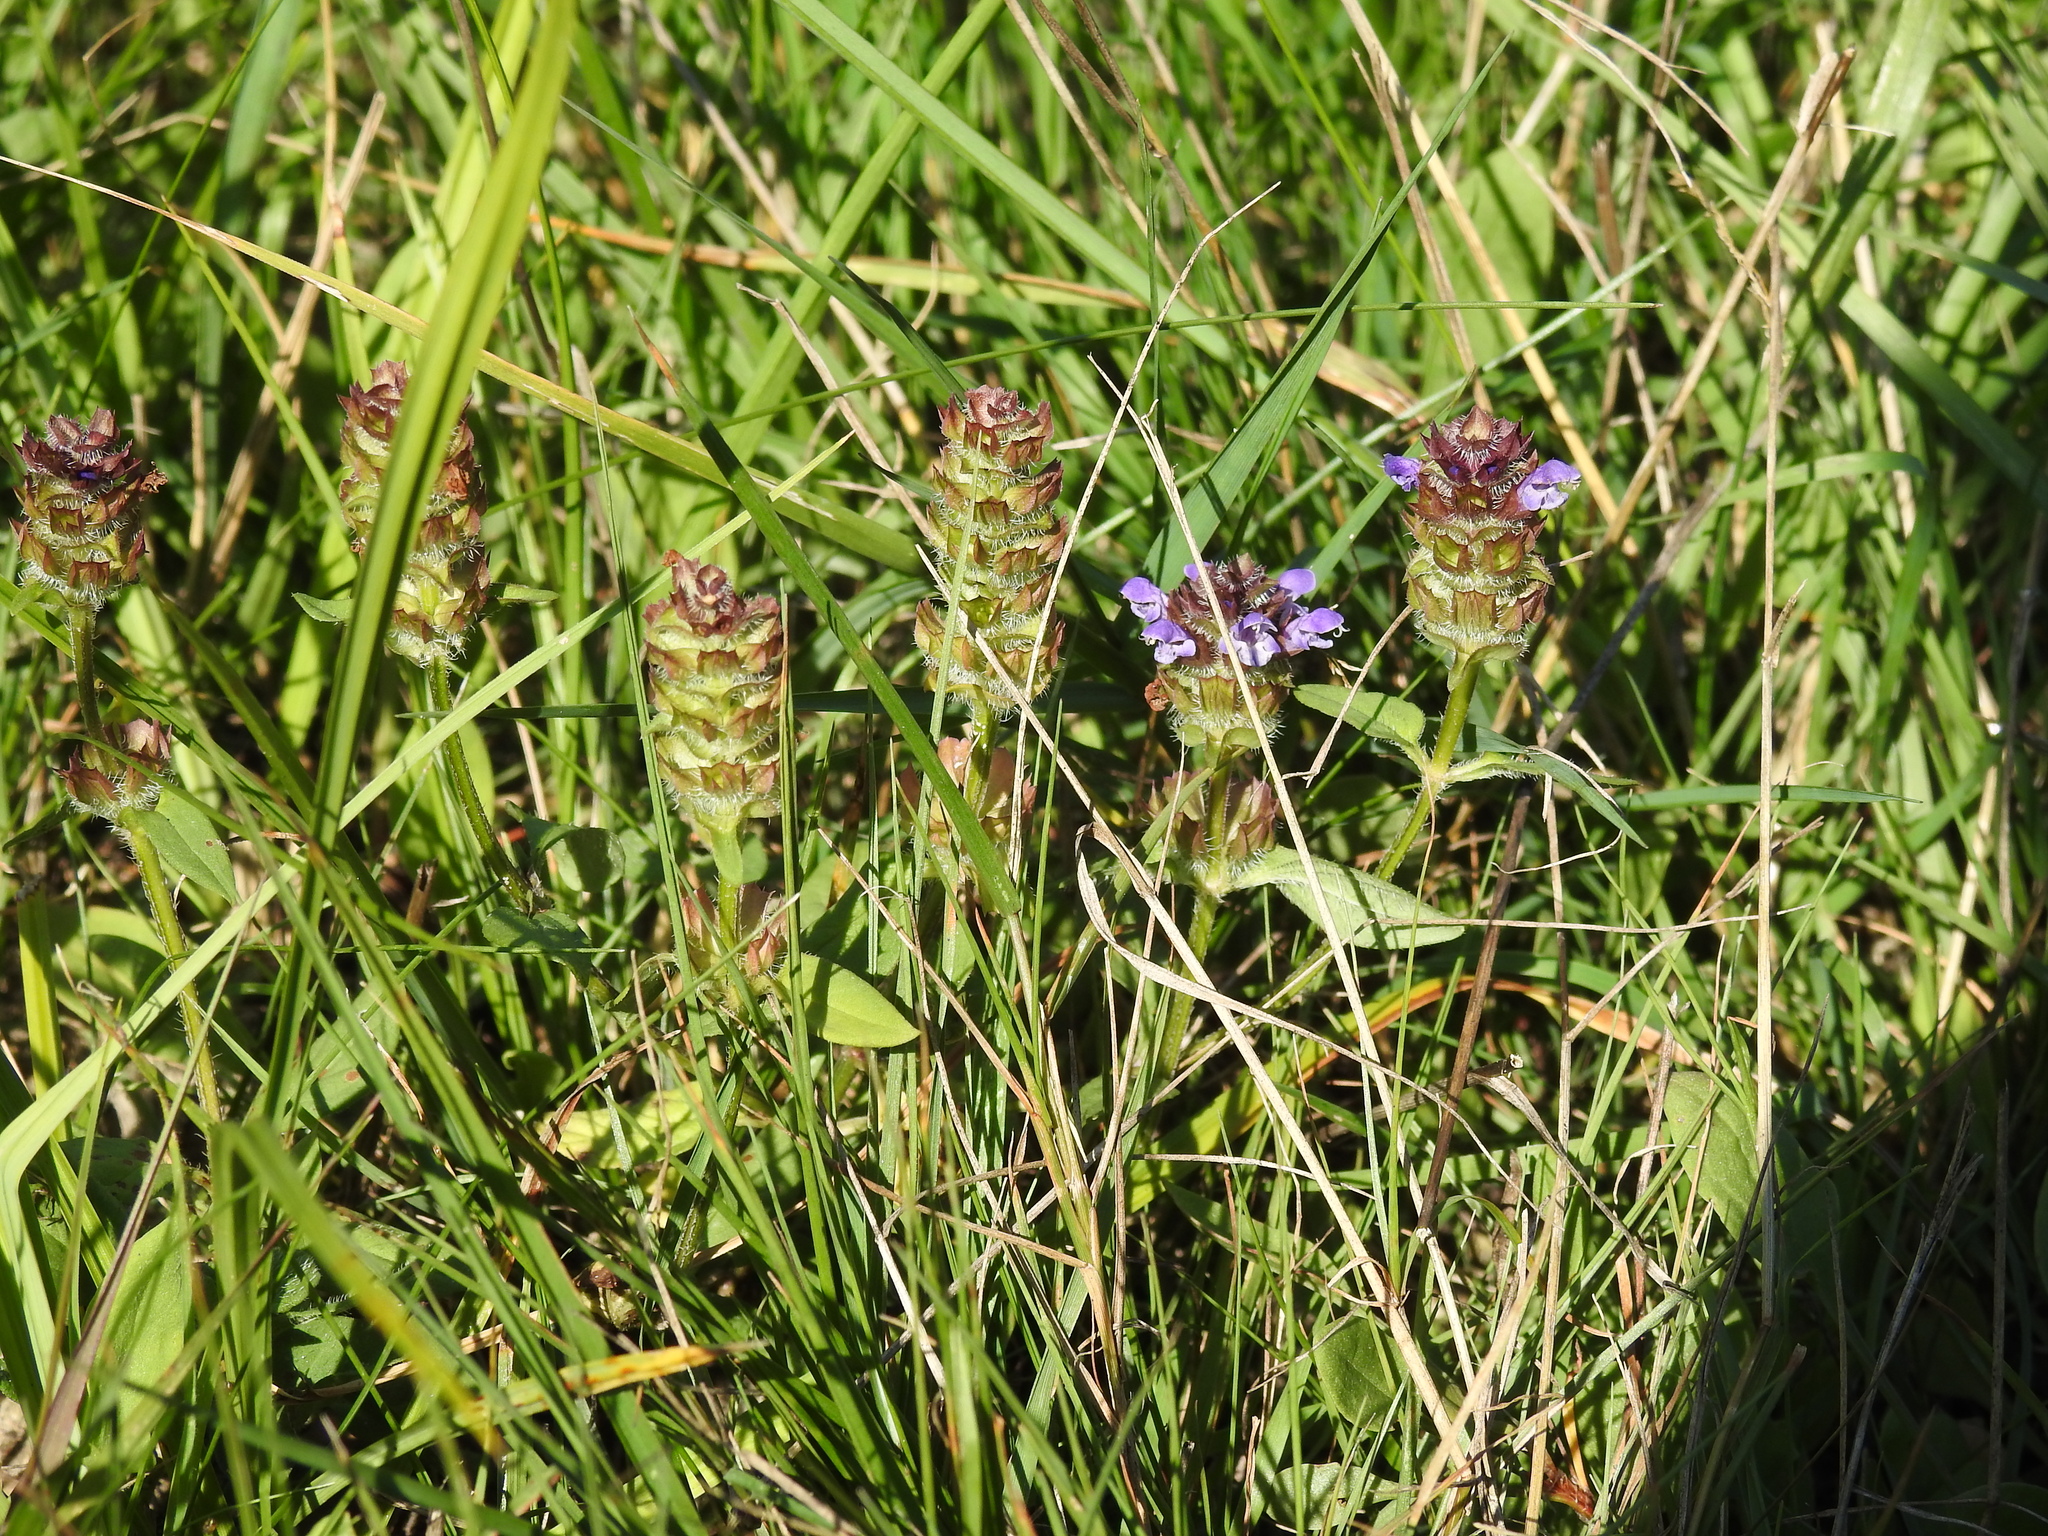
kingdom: Plantae
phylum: Tracheophyta
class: Magnoliopsida
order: Lamiales
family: Lamiaceae
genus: Prunella
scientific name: Prunella vulgaris
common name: Heal-all
